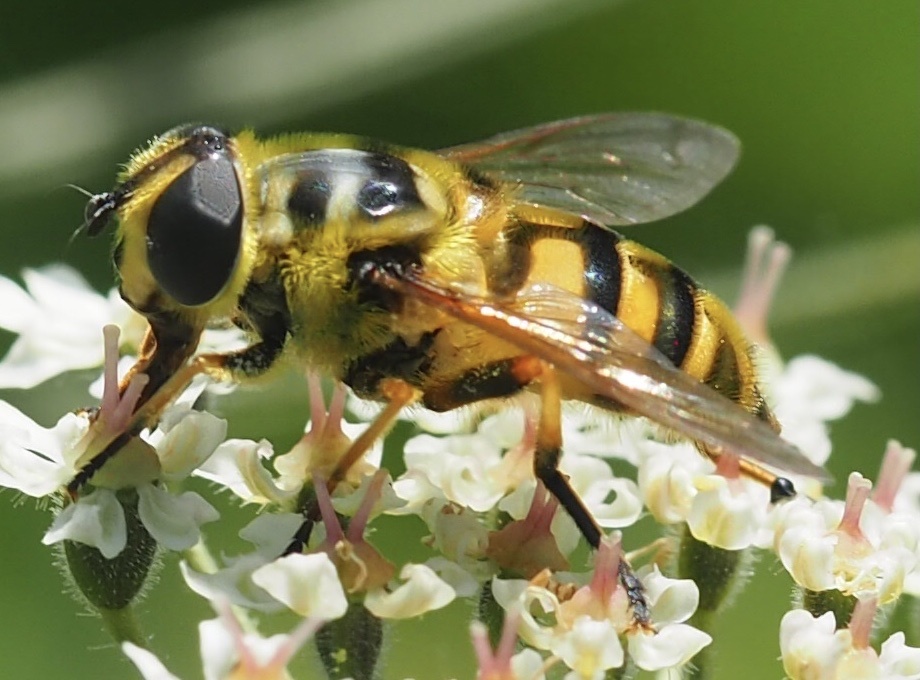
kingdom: Animalia
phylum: Arthropoda
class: Insecta
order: Diptera
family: Syrphidae
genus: Myathropa
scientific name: Myathropa florea
